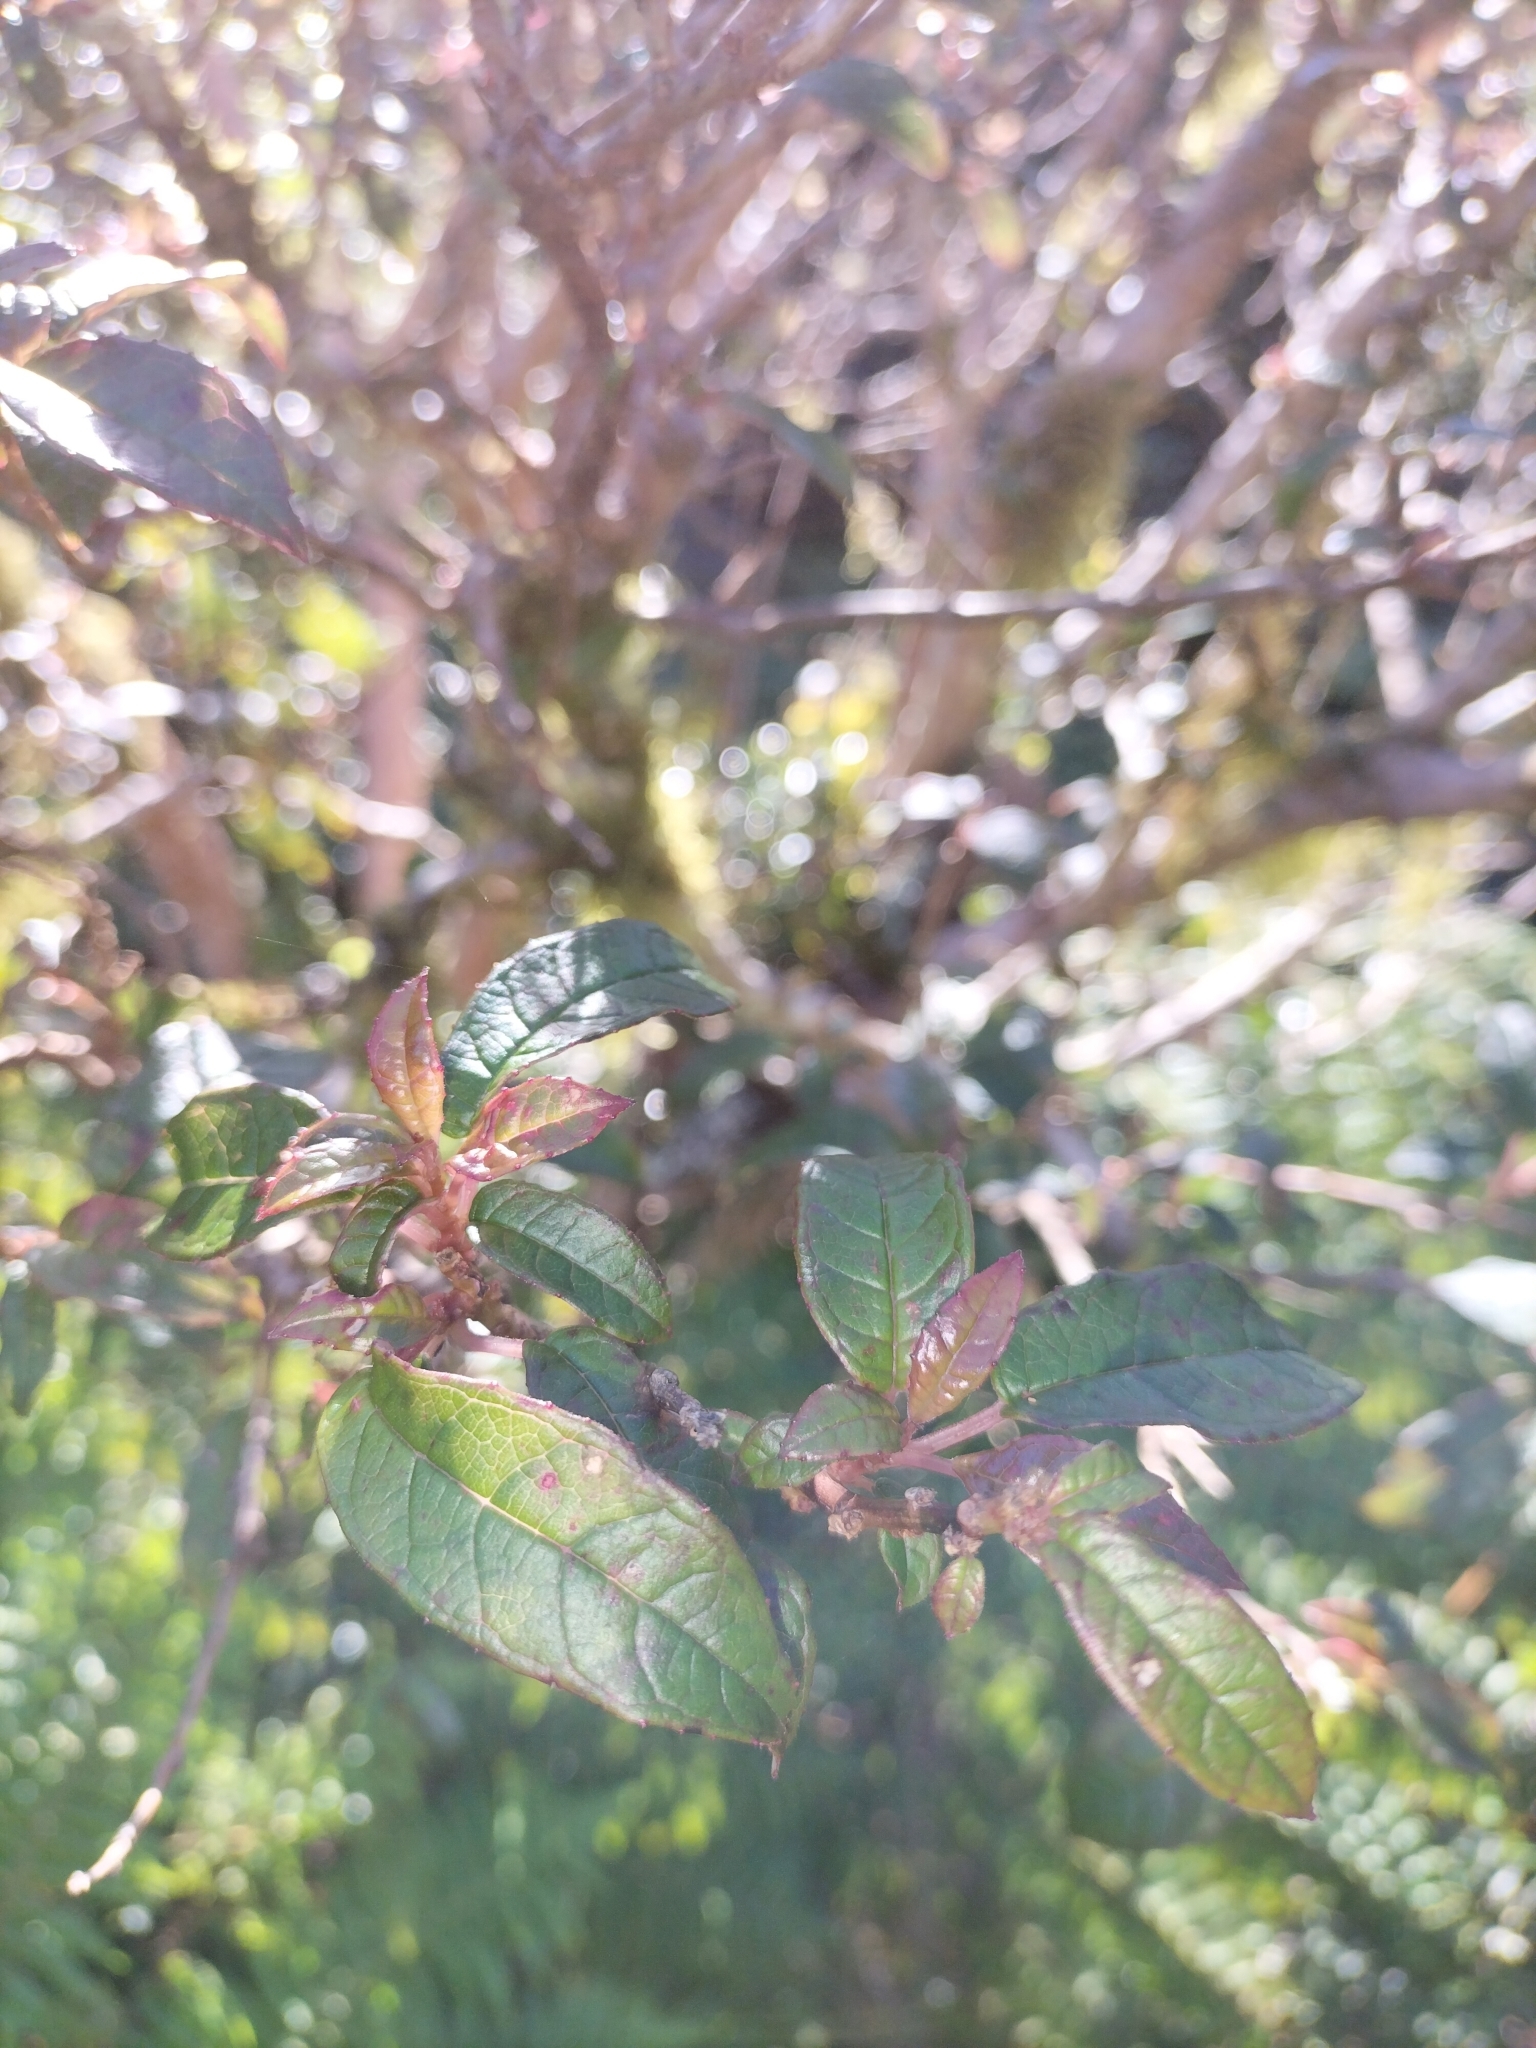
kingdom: Plantae
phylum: Tracheophyta
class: Magnoliopsida
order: Myrtales
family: Onagraceae
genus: Fuchsia
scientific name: Fuchsia excorticata
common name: Tree fuchsia
